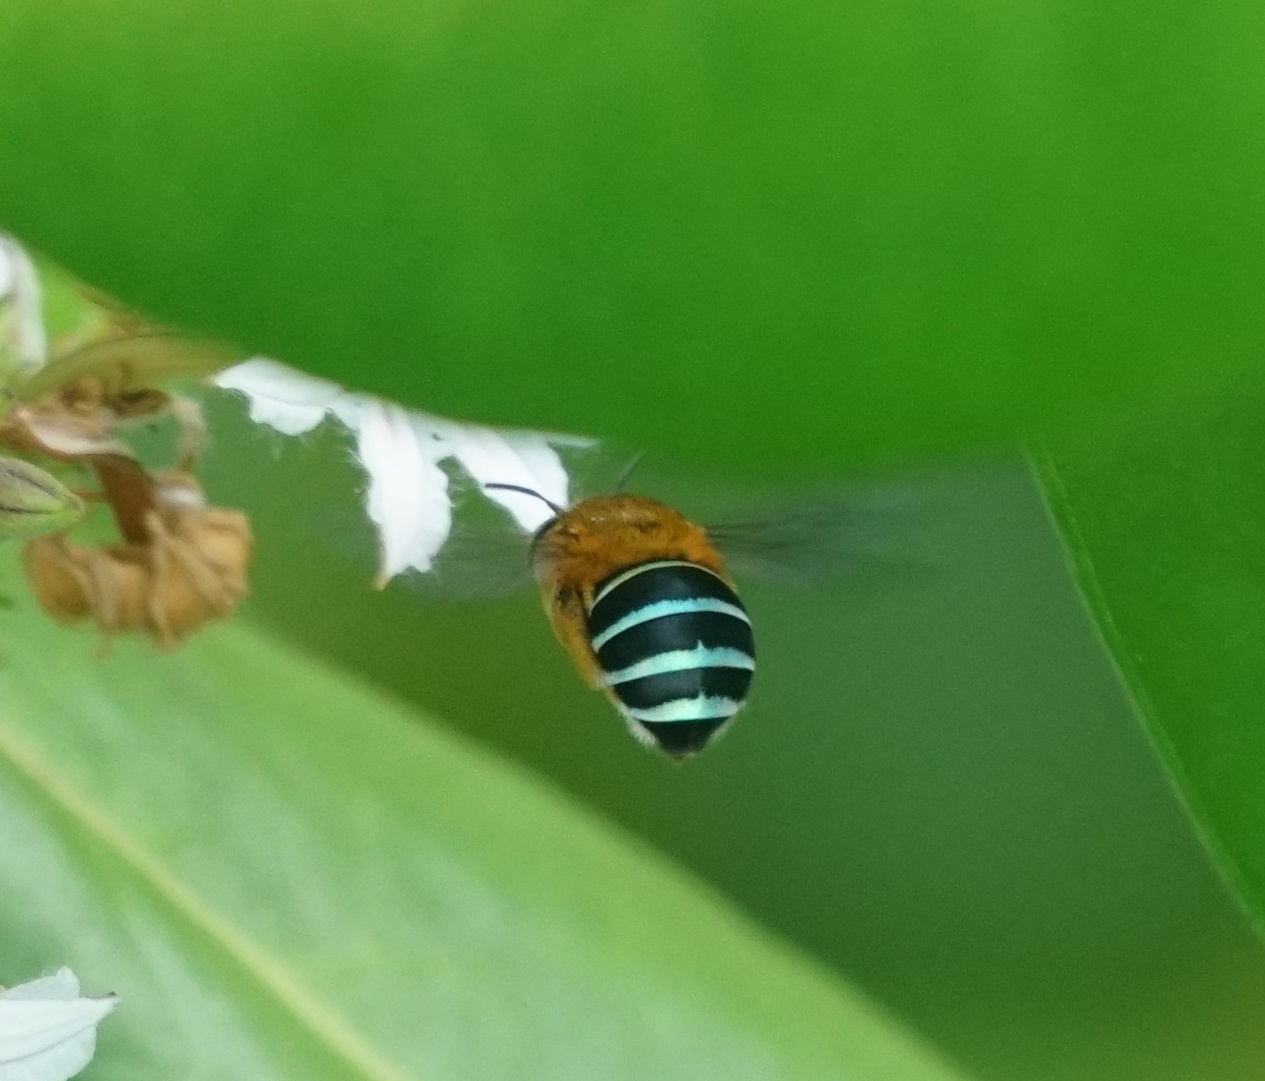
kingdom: Animalia
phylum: Arthropoda
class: Insecta
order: Hymenoptera
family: Apidae
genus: Amegilla
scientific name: Amegilla cingulata
